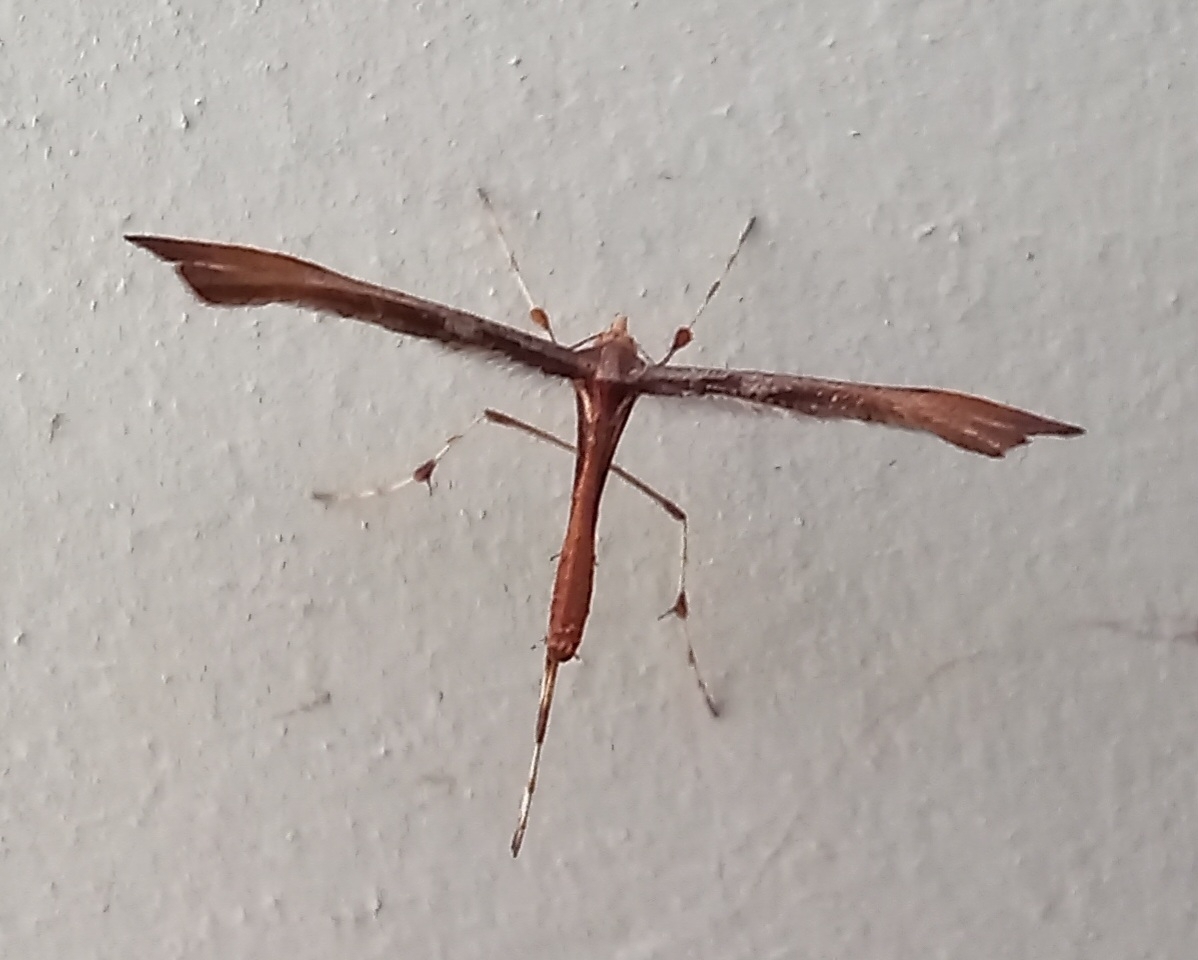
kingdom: Animalia
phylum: Arthropoda
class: Insecta
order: Lepidoptera
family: Pterophoridae
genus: Amblyptilia
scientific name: Amblyptilia heliastis
